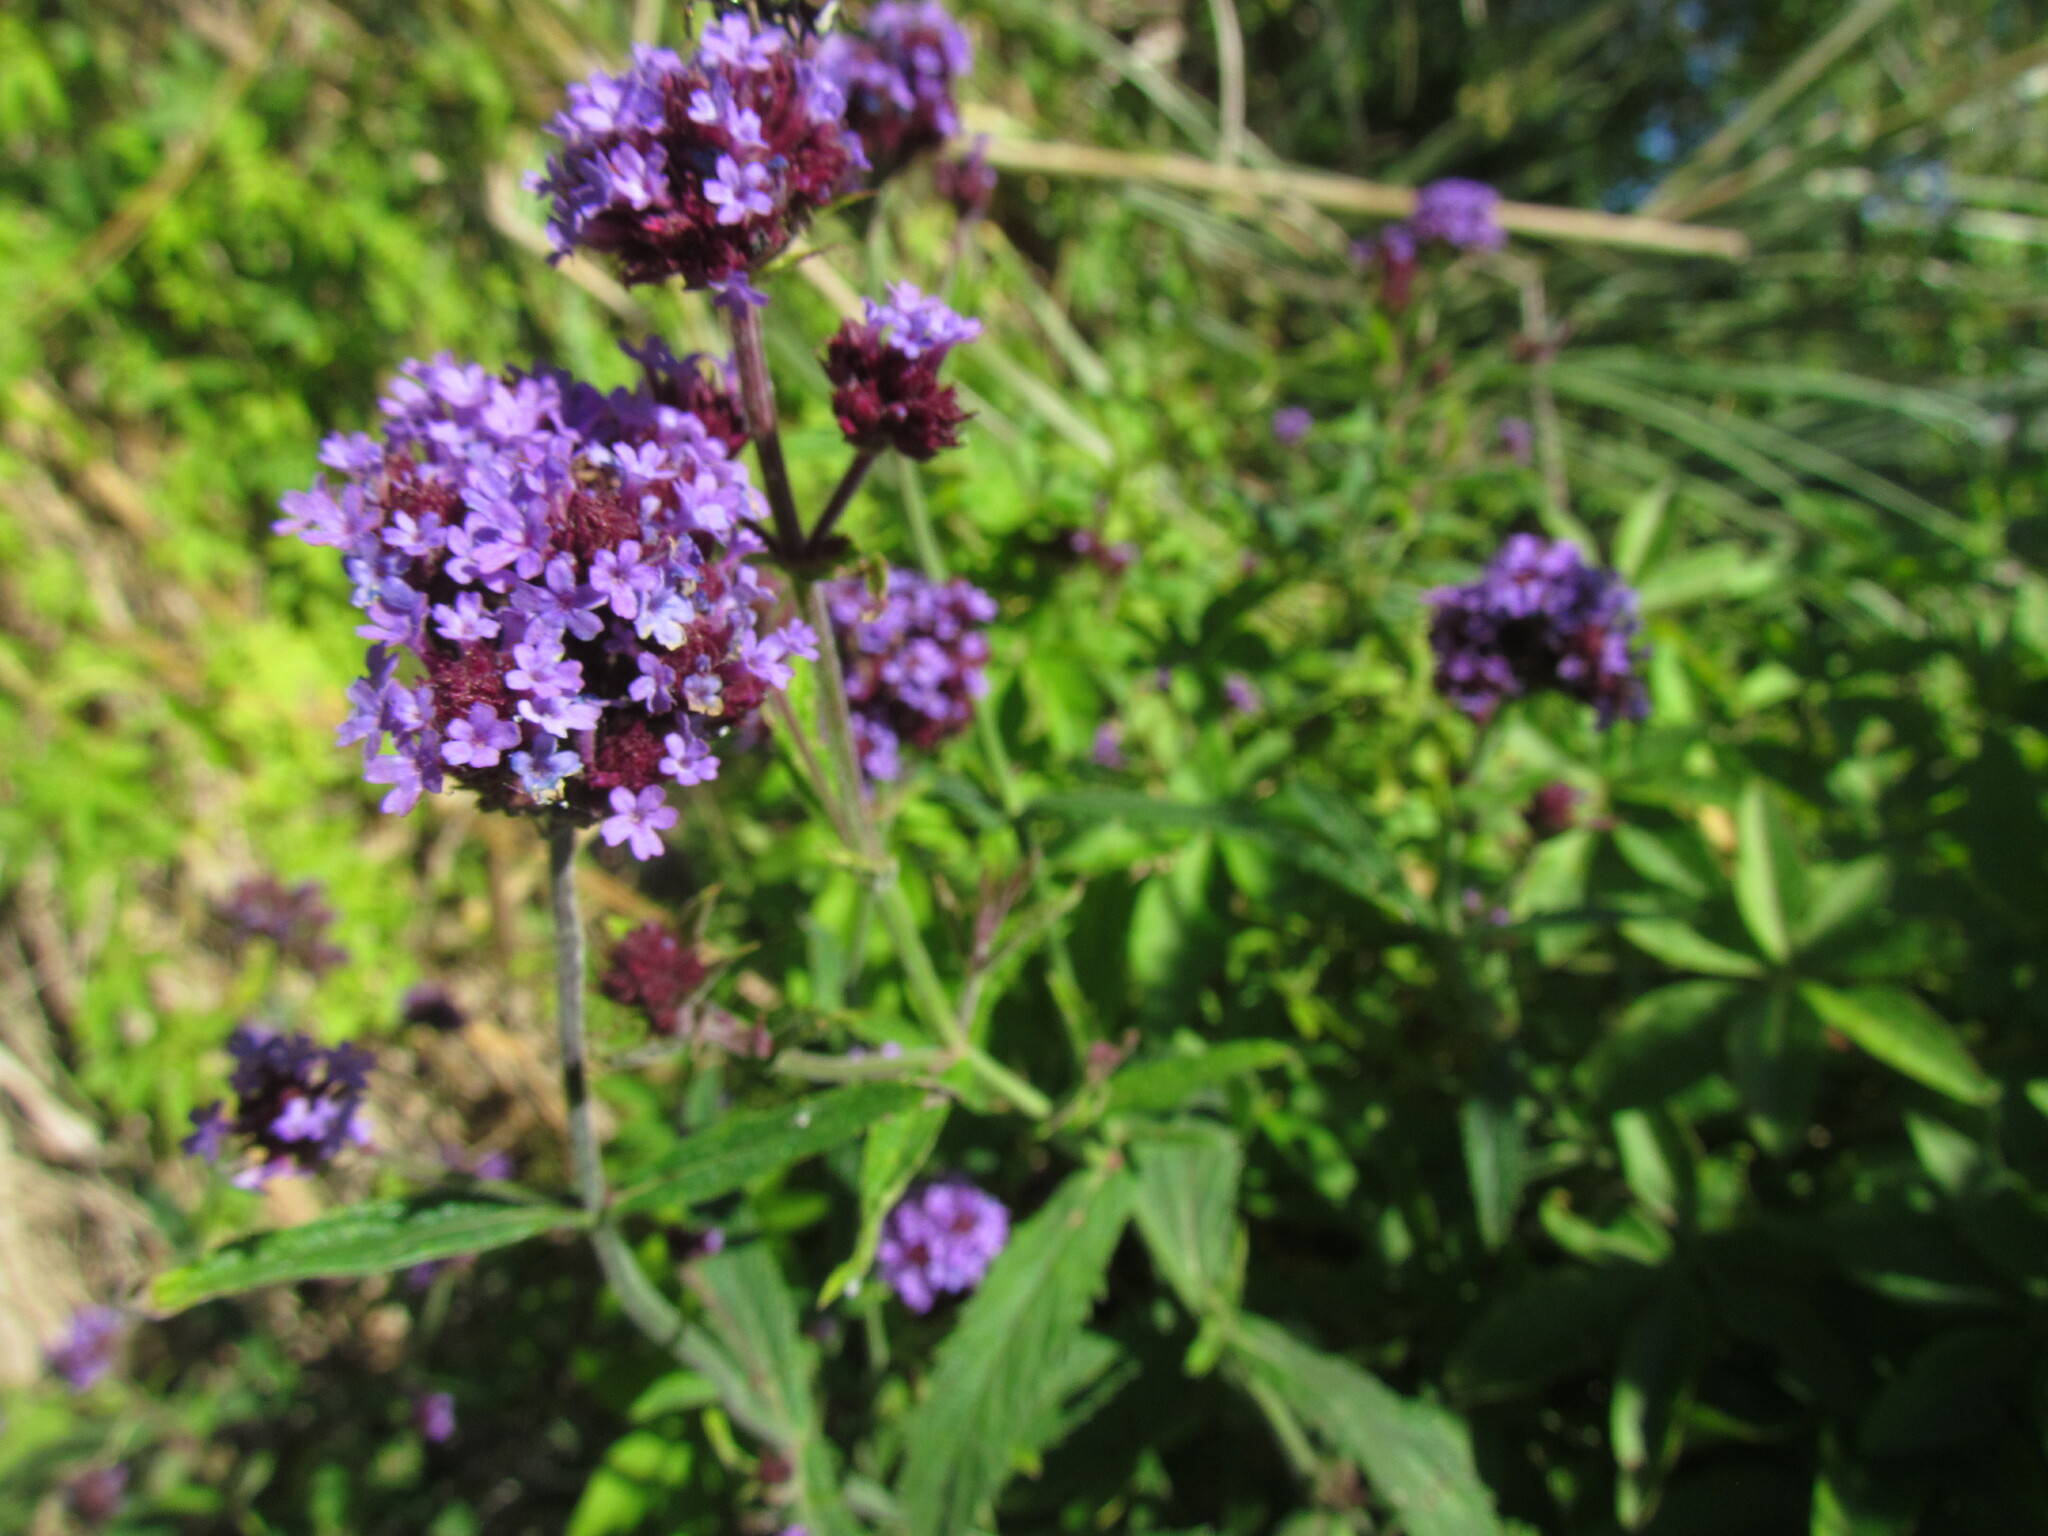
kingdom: Plantae
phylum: Tracheophyta
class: Magnoliopsida
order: Lamiales
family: Verbenaceae
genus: Verbena
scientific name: Verbena bonariensis
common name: Purpletop vervain
